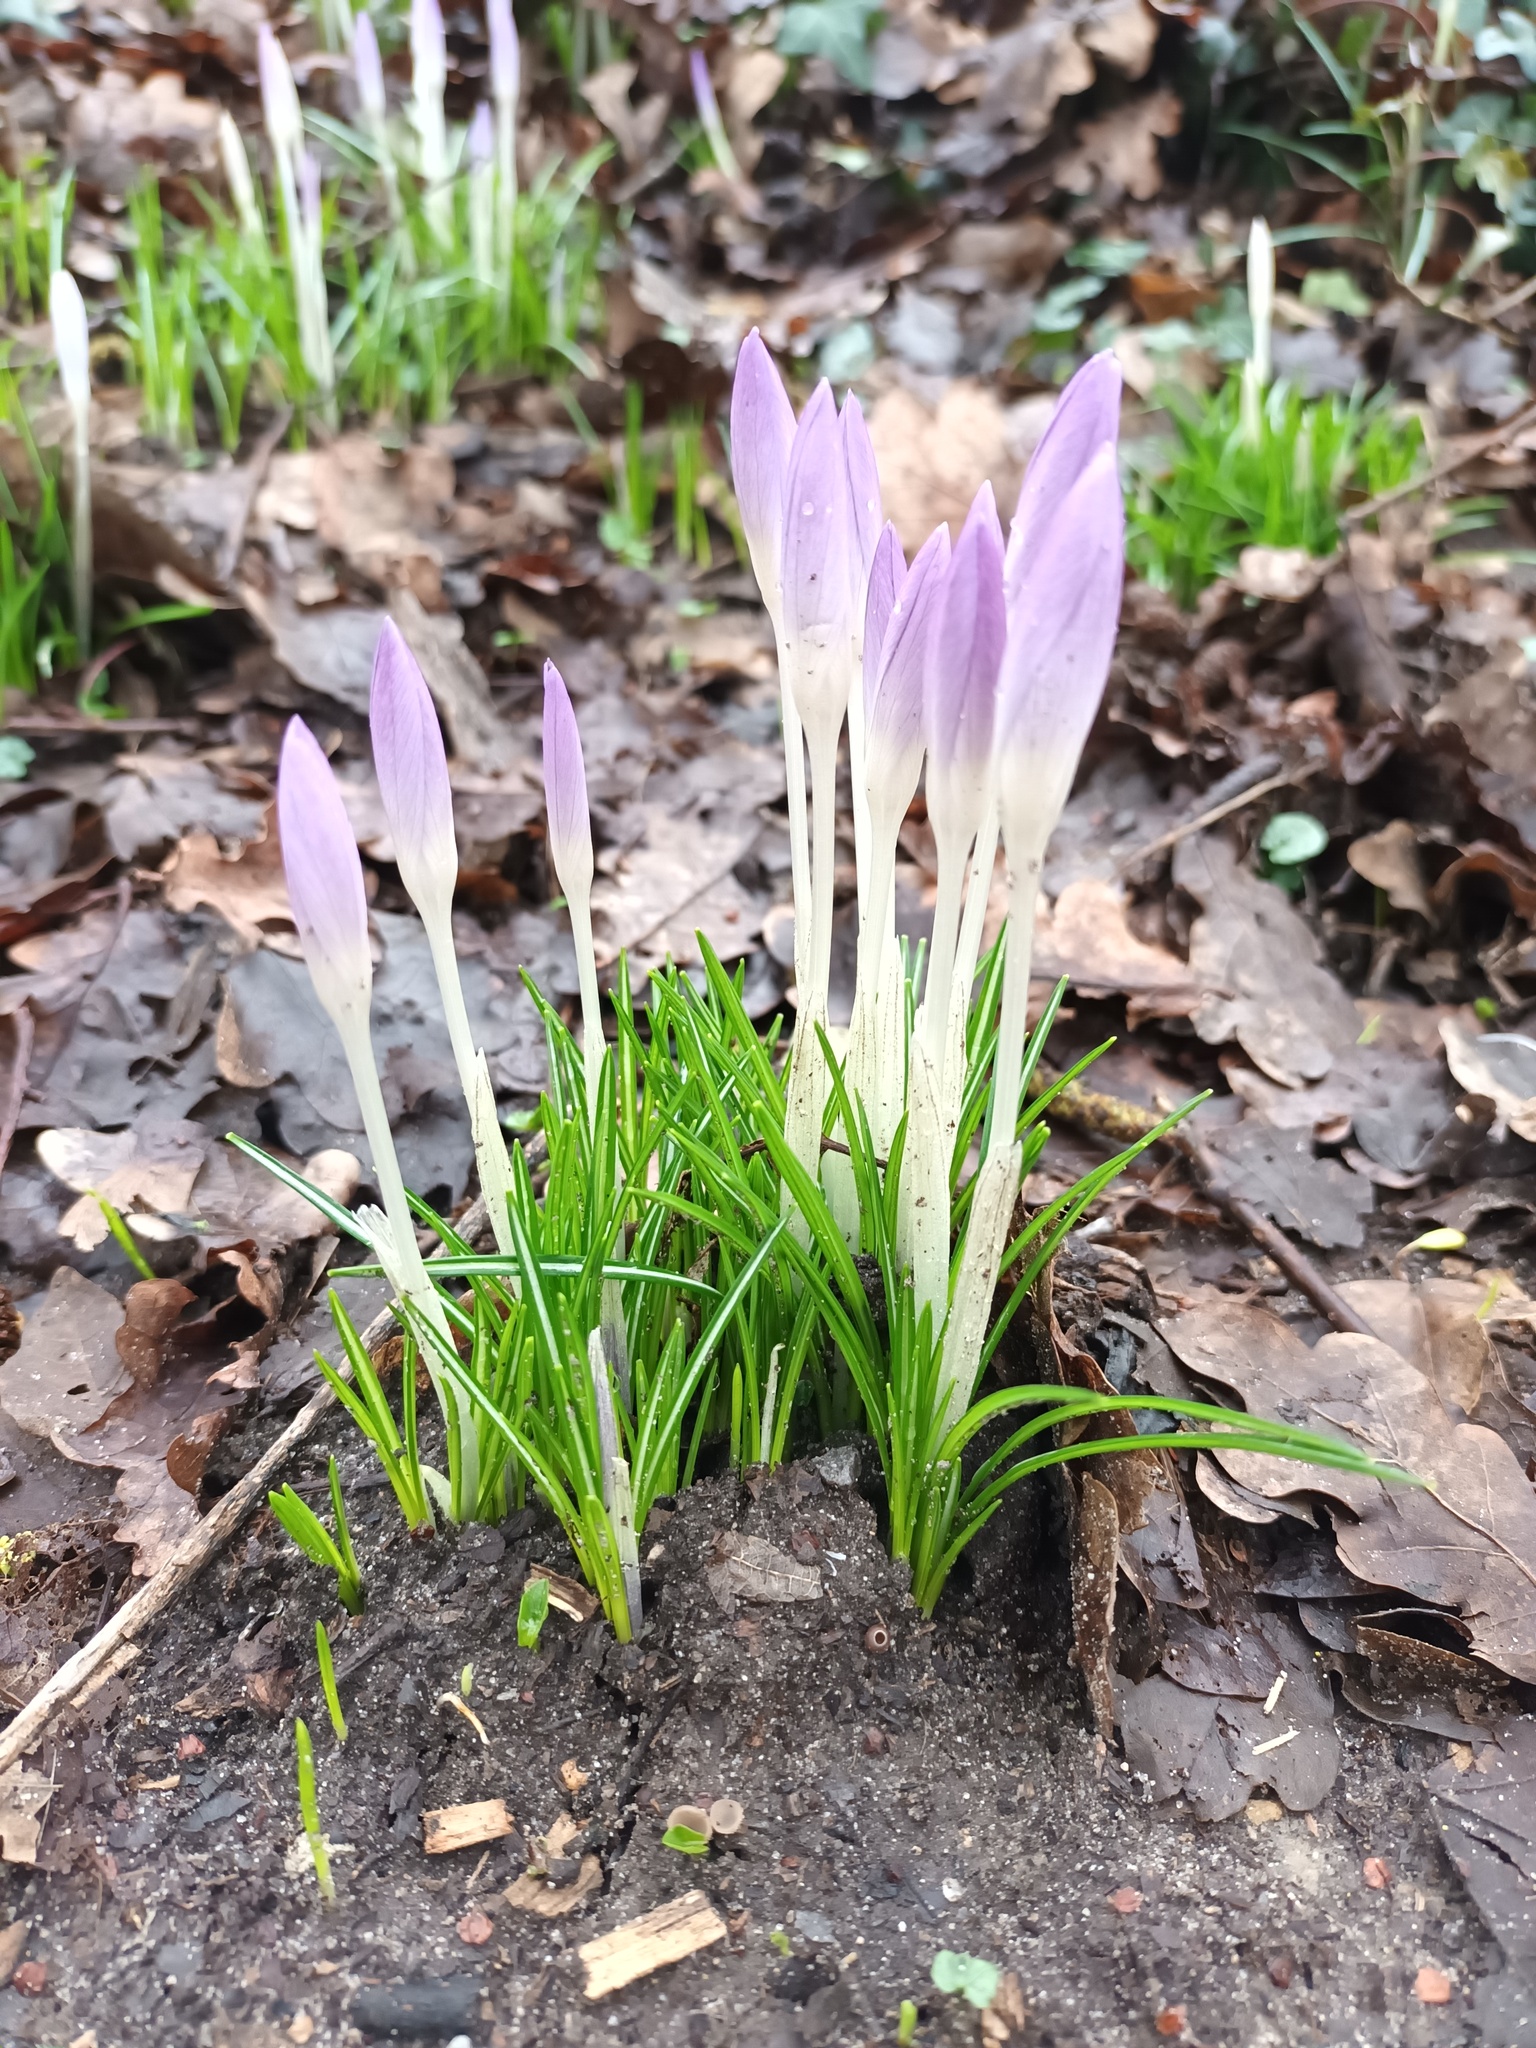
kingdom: Plantae
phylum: Tracheophyta
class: Liliopsida
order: Asparagales
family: Iridaceae
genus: Crocus
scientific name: Crocus tommasinianus
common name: Early crocus
